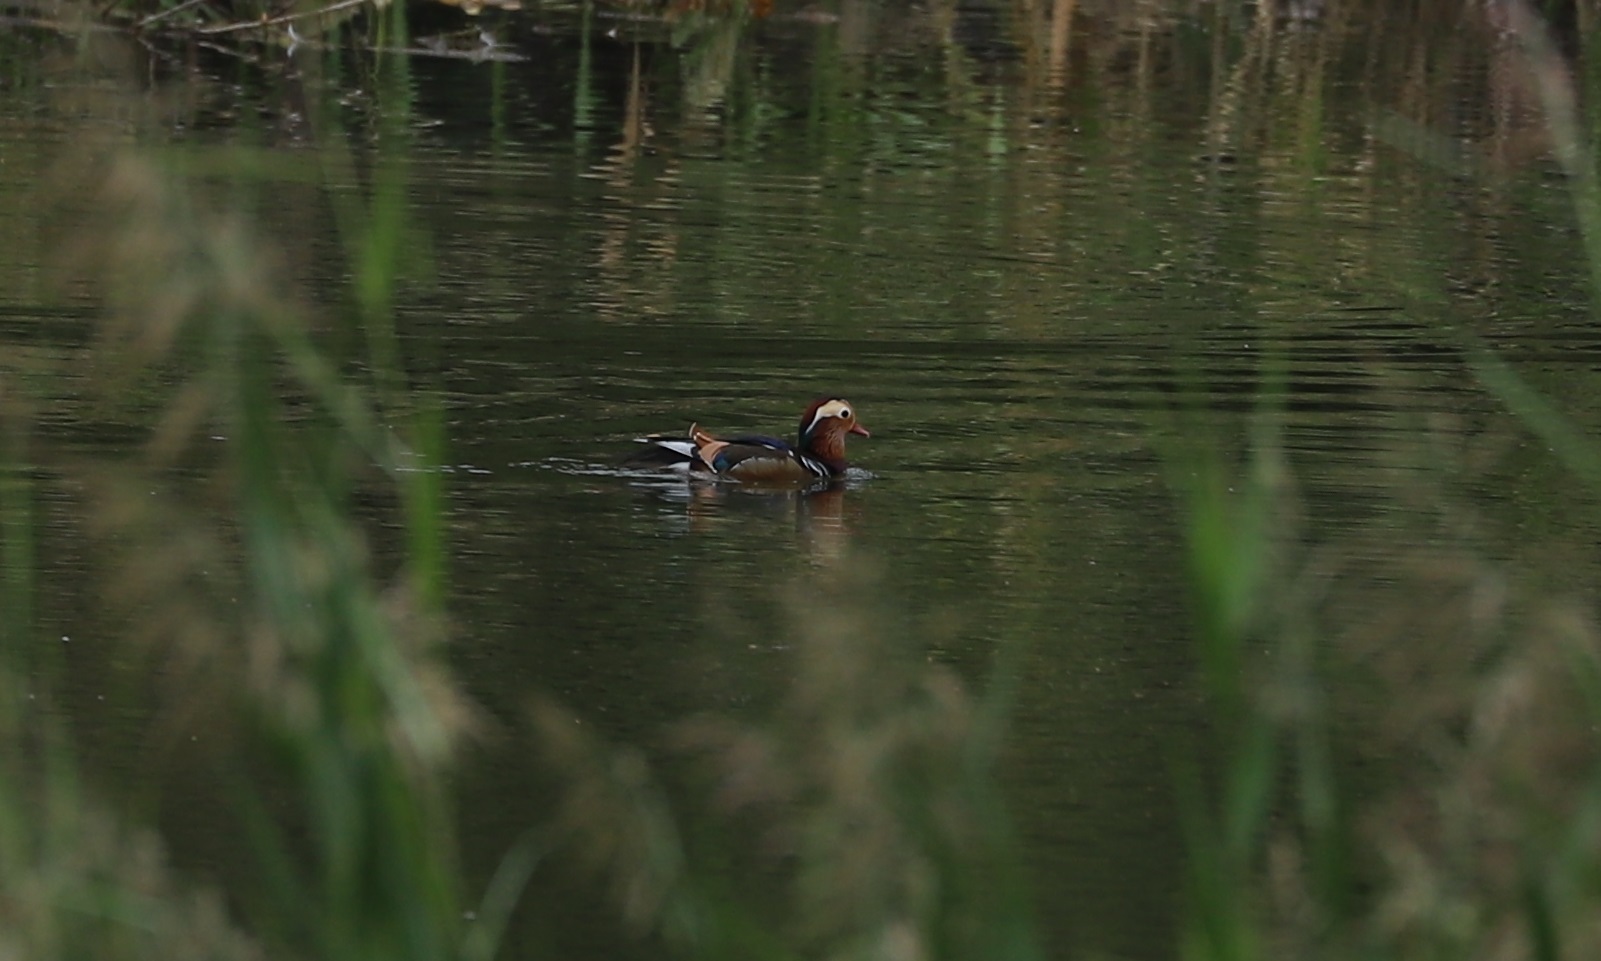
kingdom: Animalia
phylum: Chordata
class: Aves
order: Anseriformes
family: Anatidae
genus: Aix
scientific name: Aix galericulata
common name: Mandarin duck
